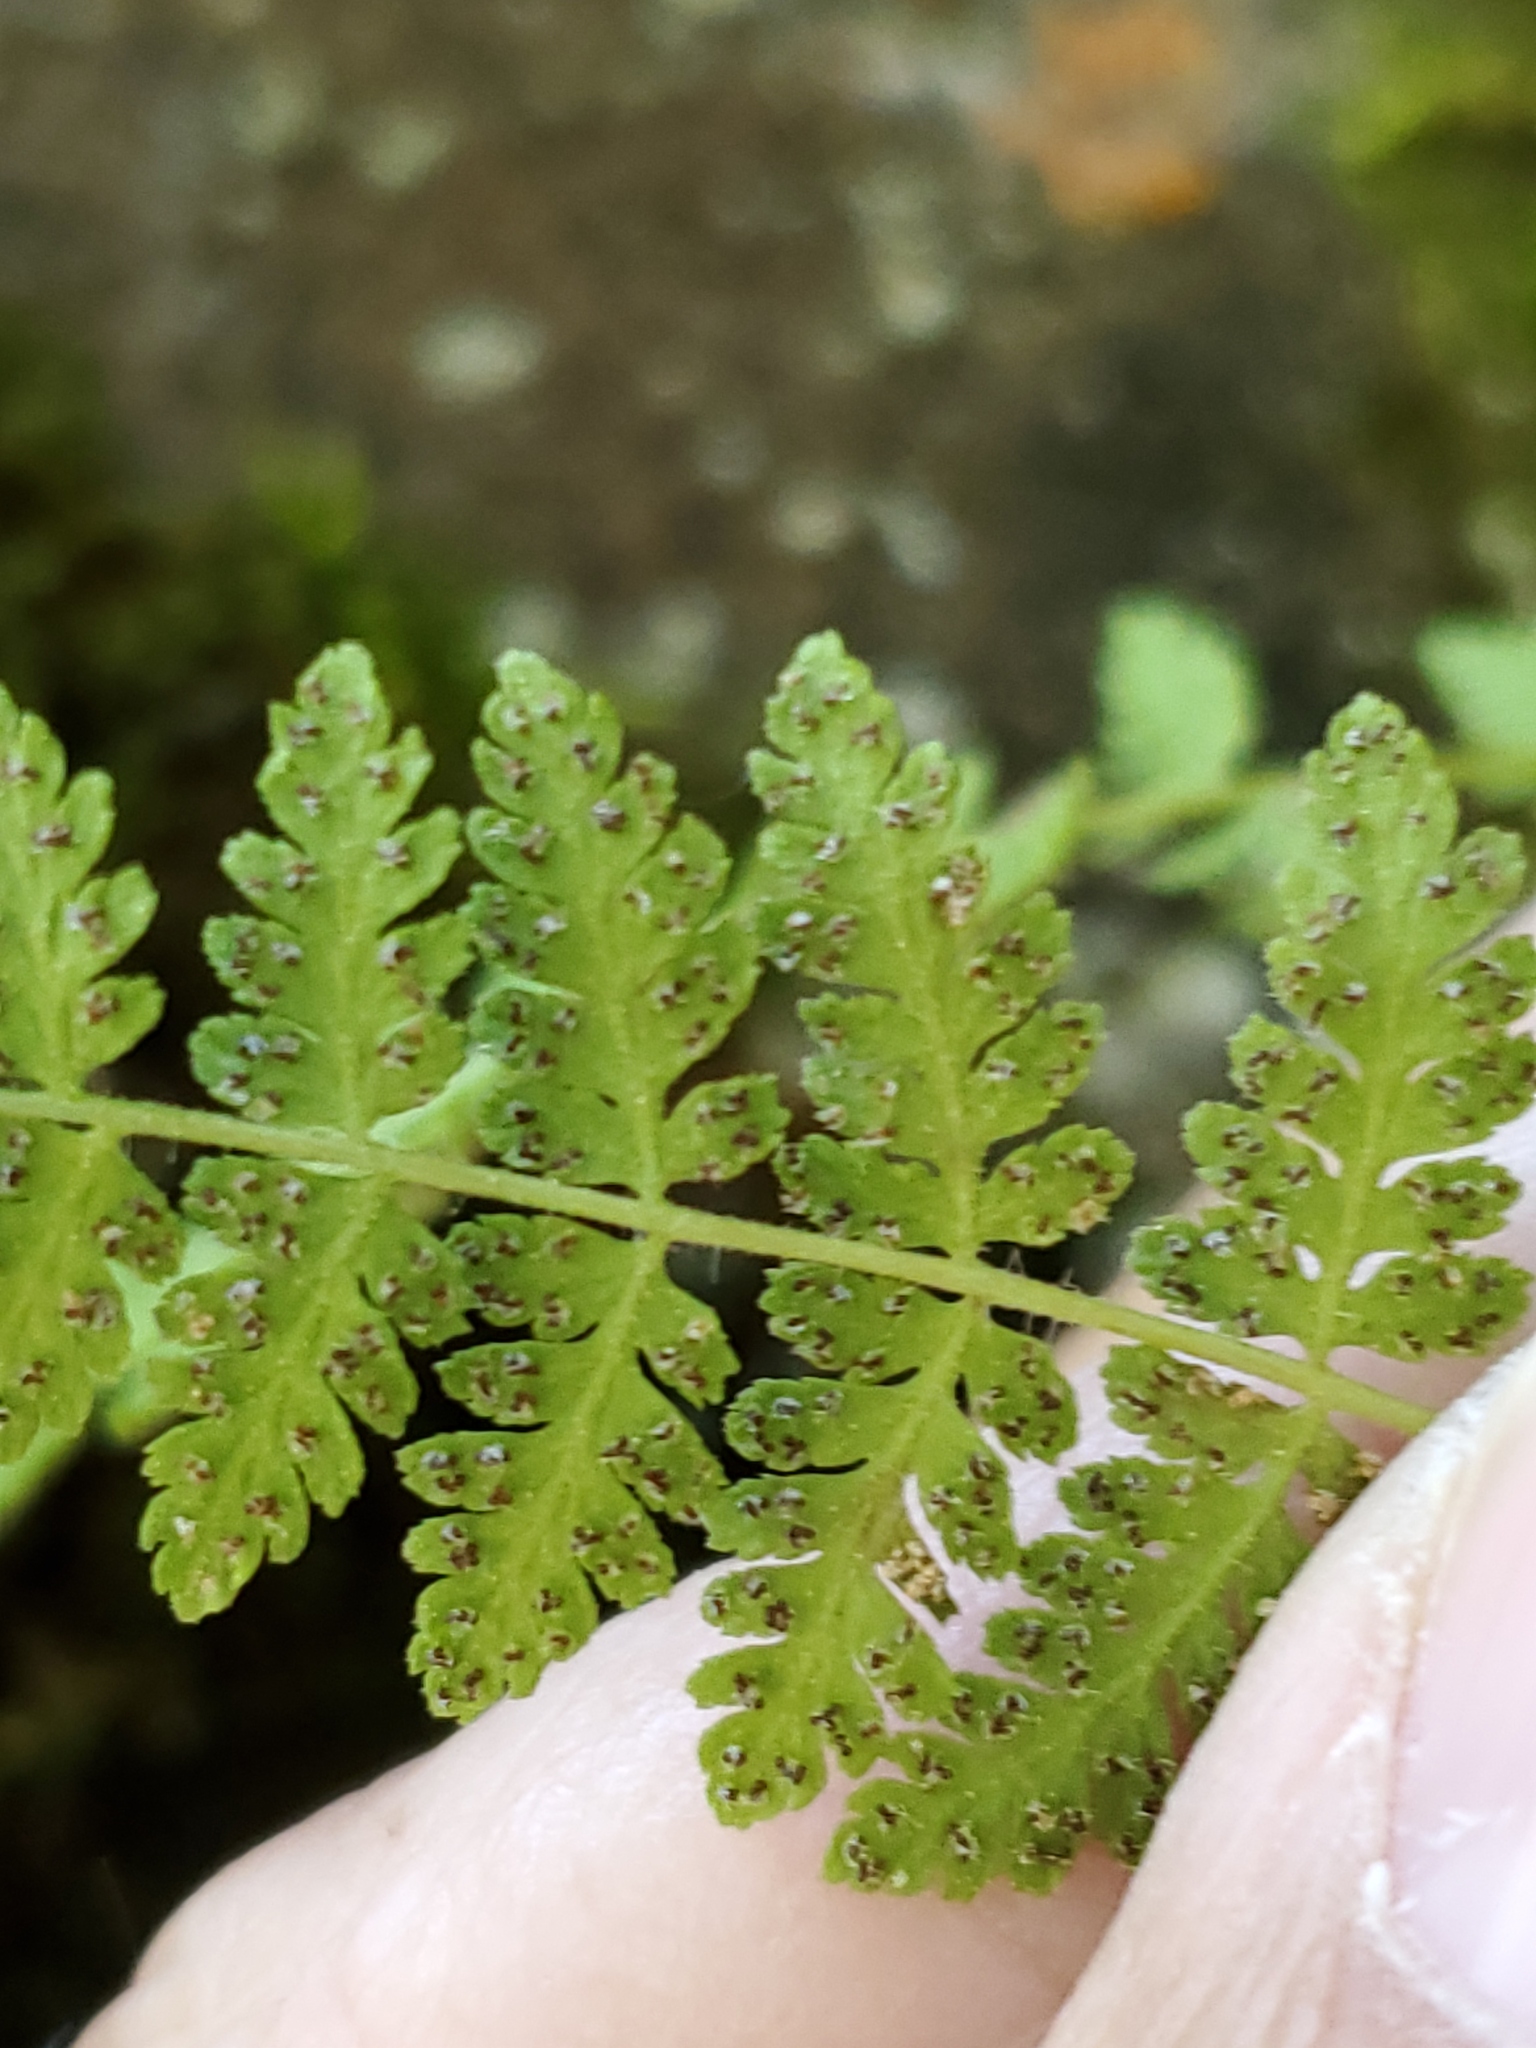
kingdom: Plantae
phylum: Tracheophyta
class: Polypodiopsida
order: Polypodiales
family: Woodsiaceae
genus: Physematium
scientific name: Physematium scopulinum
